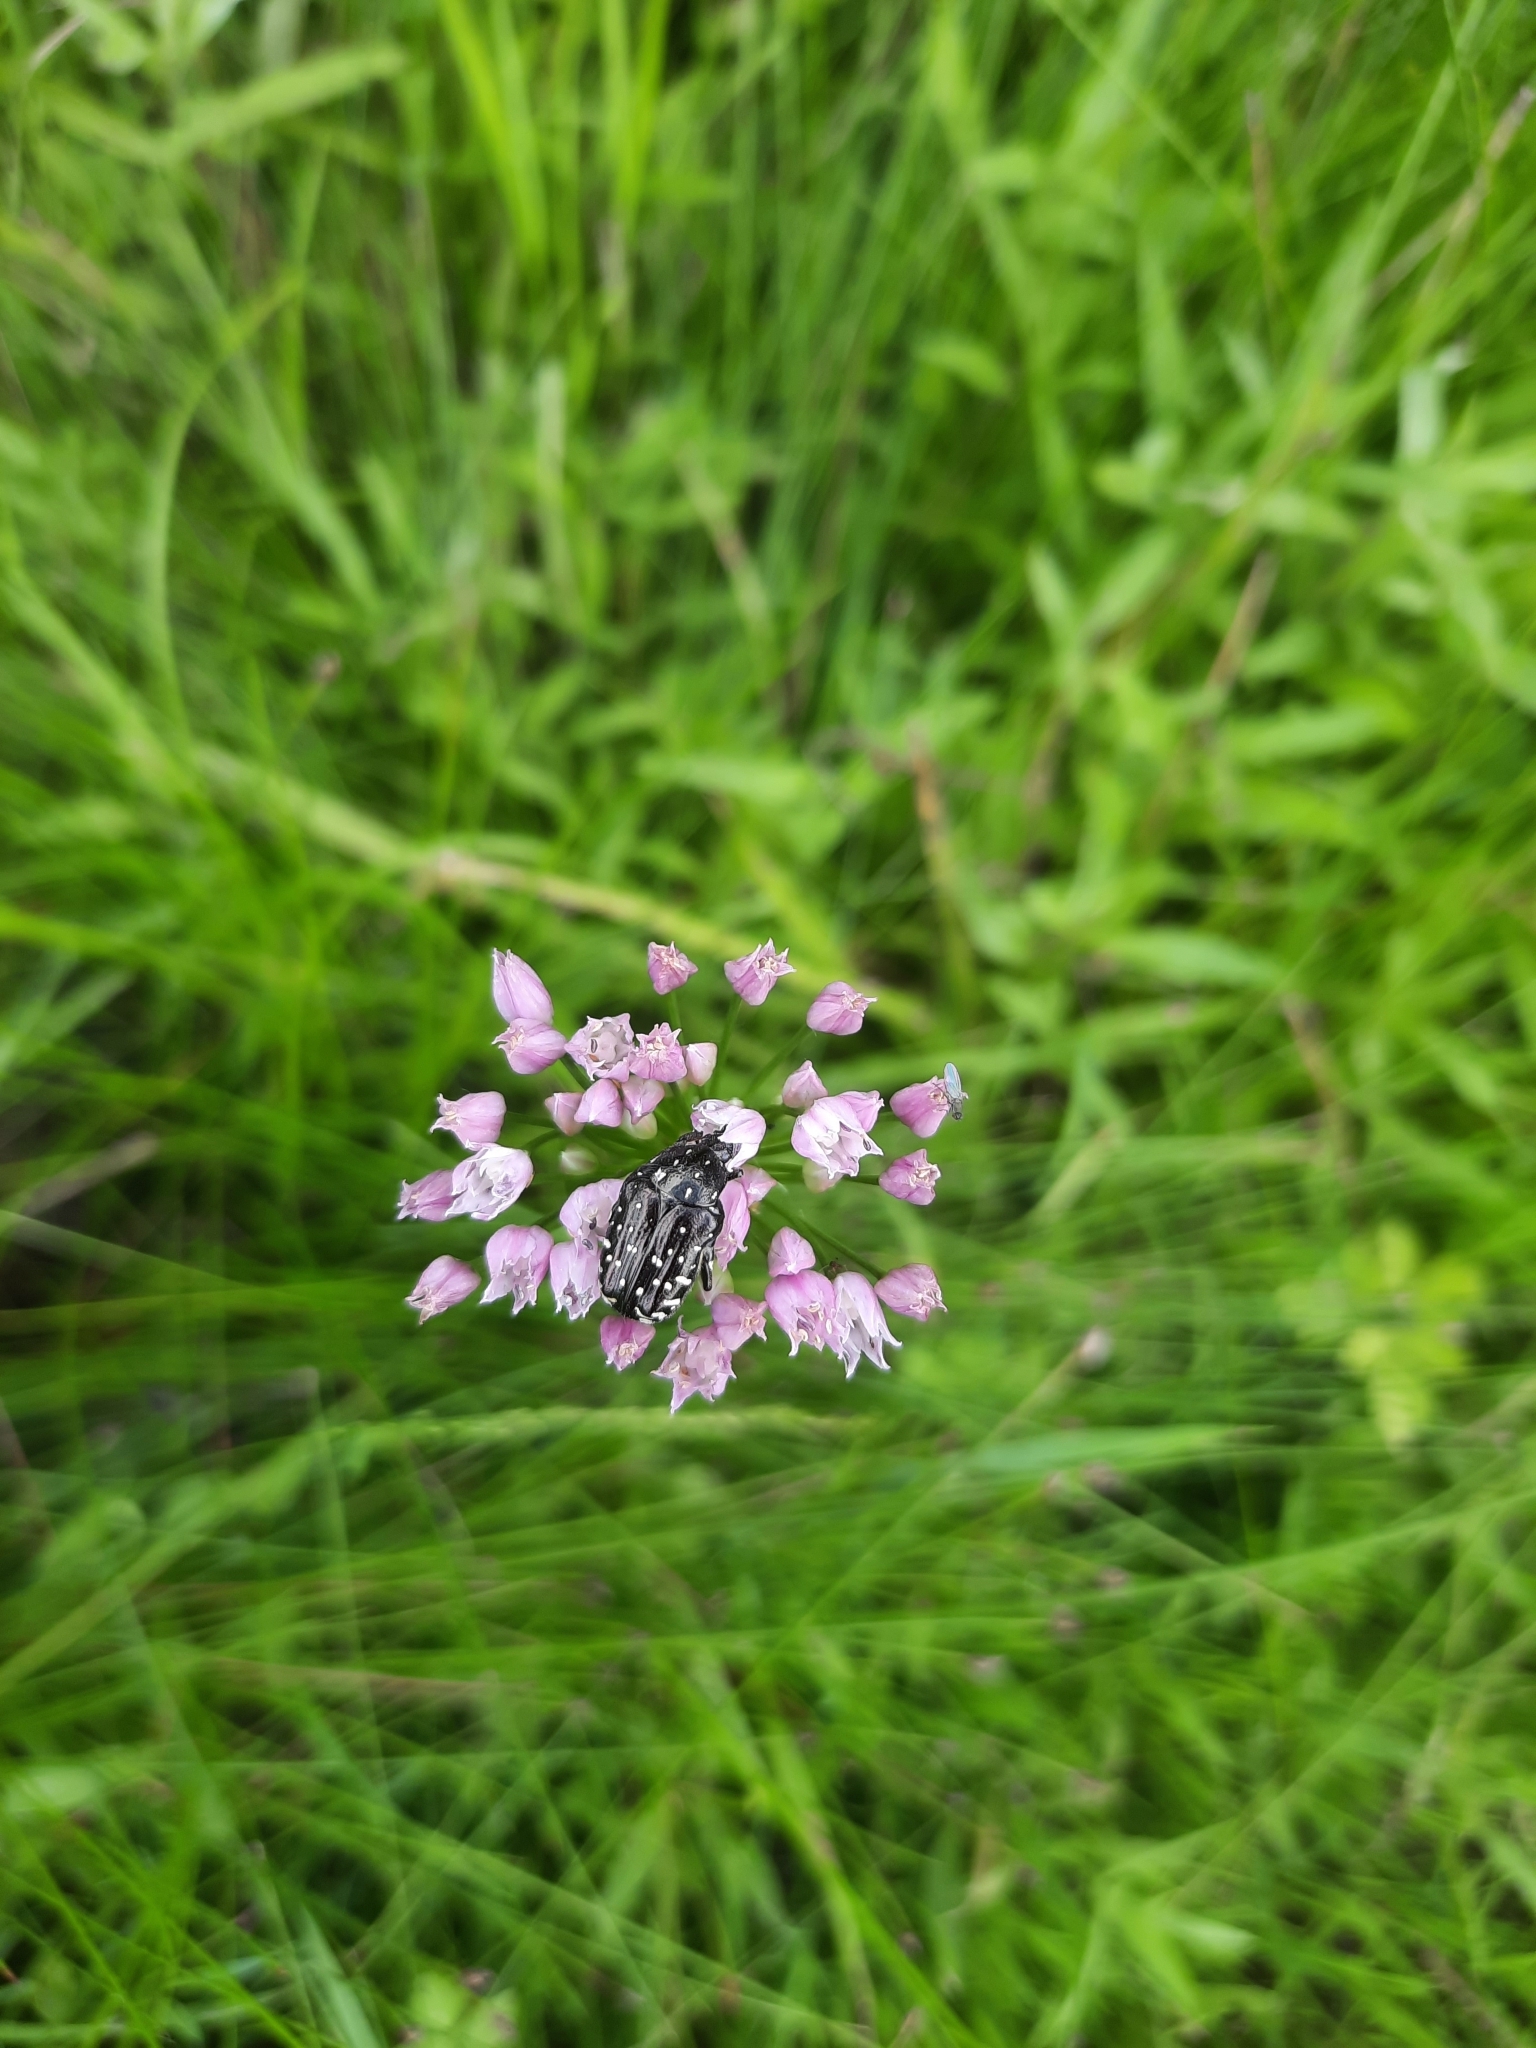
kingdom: Animalia
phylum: Arthropoda
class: Insecta
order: Coleoptera
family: Scarabaeidae
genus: Oxythyrea
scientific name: Oxythyrea funesta
